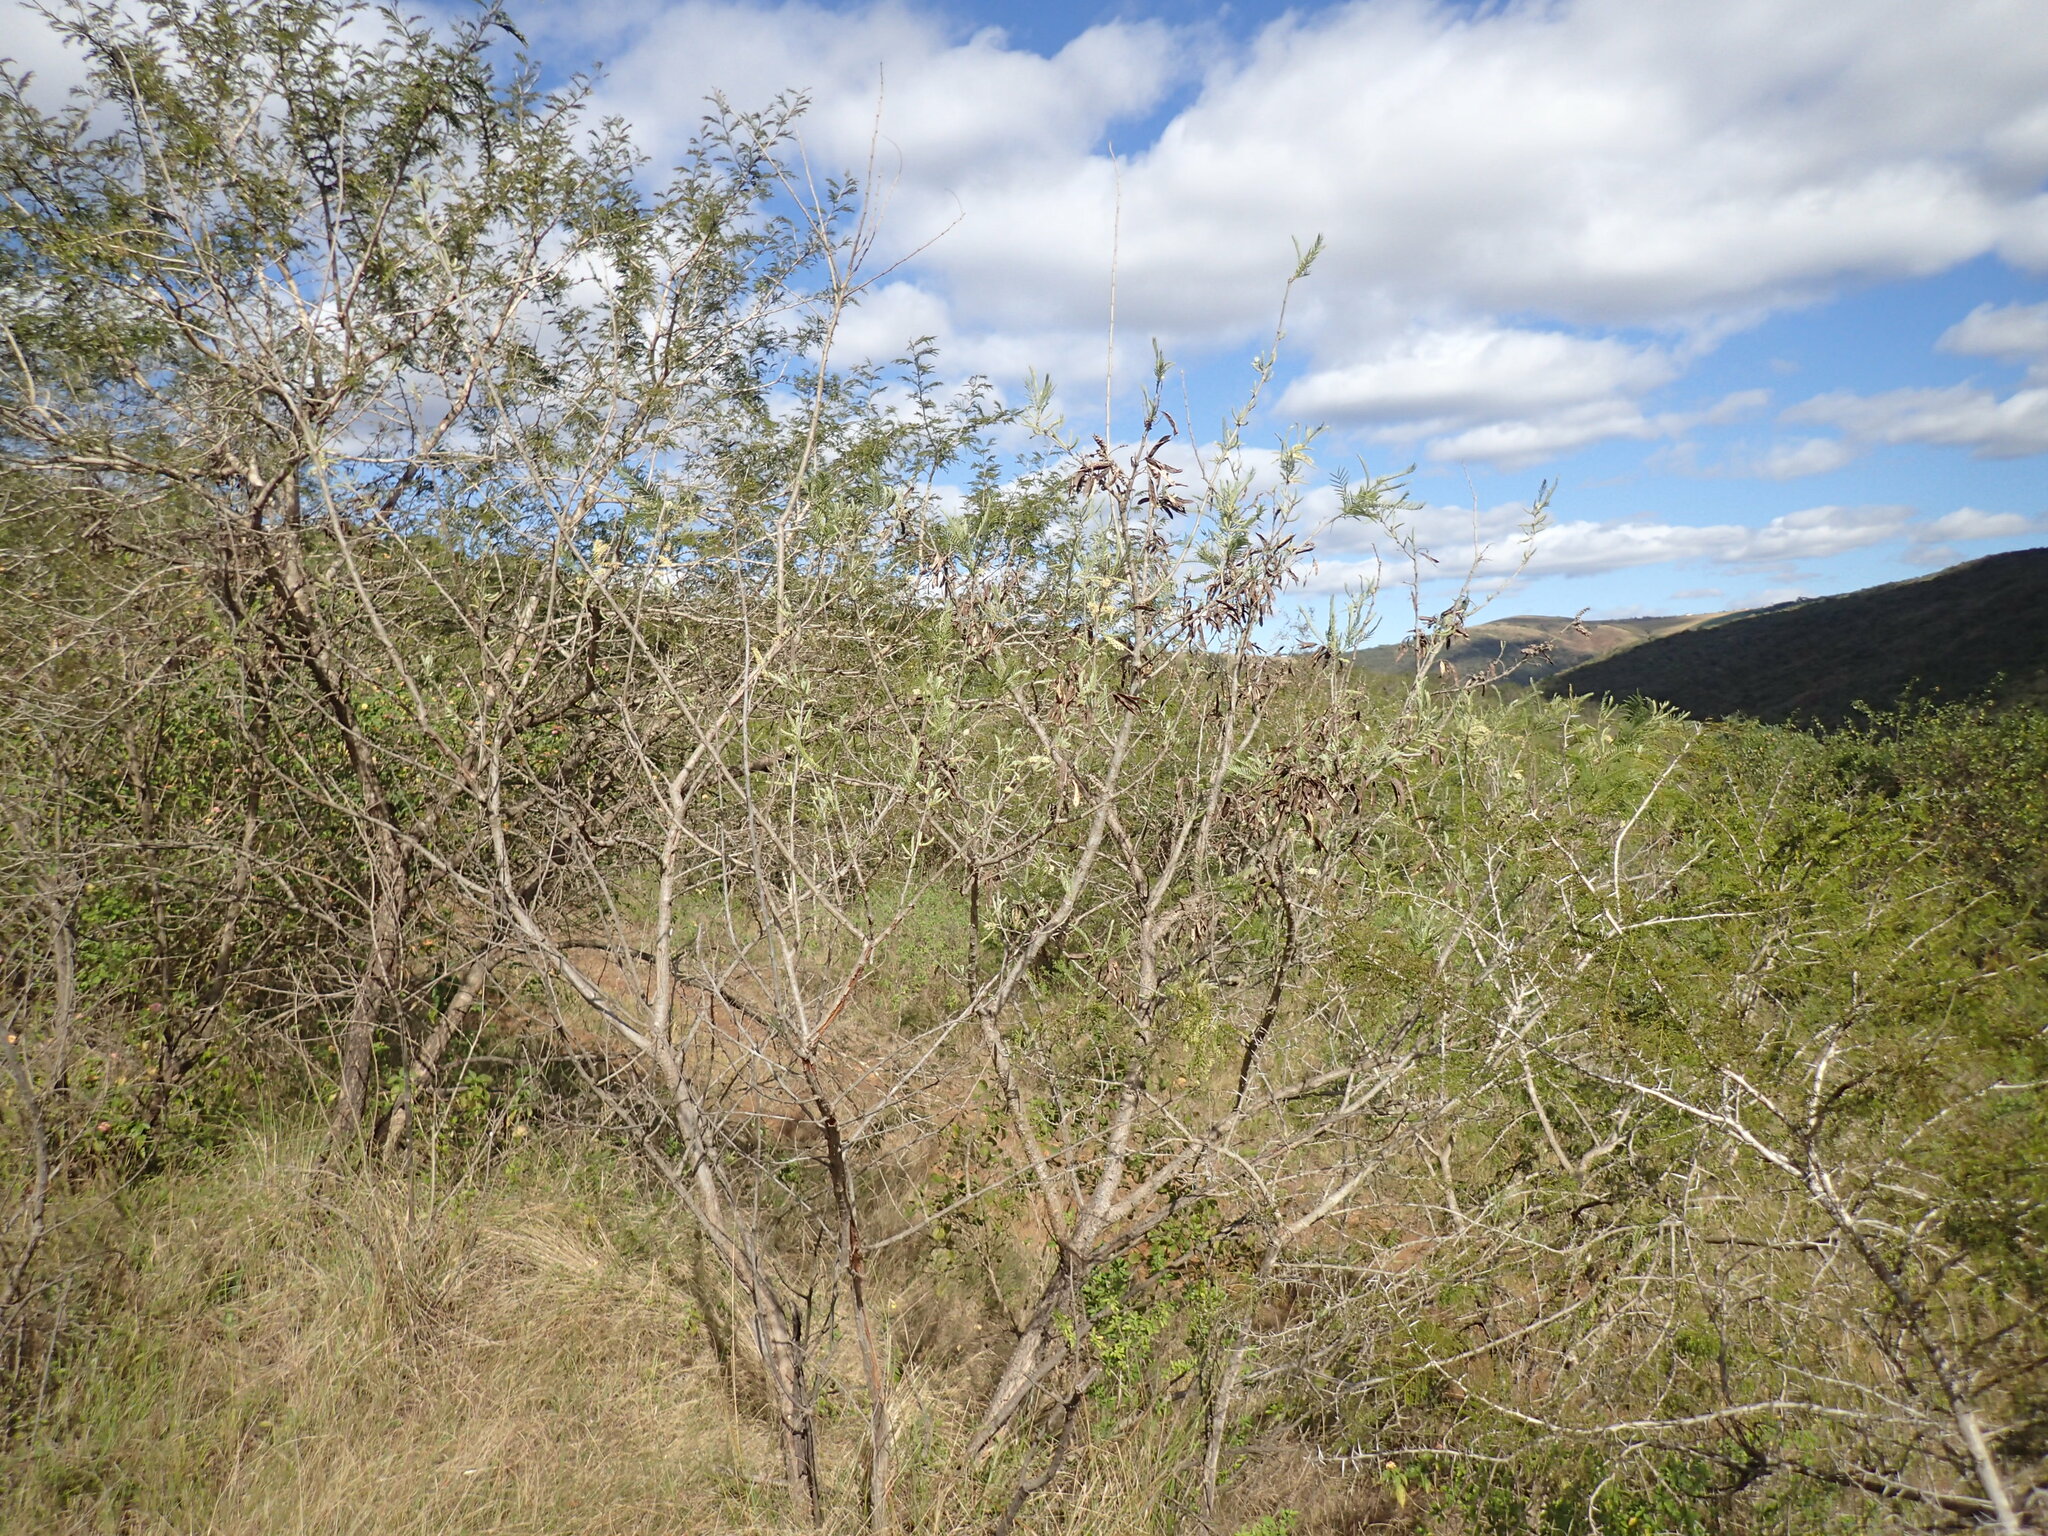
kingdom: Plantae
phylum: Tracheophyta
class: Magnoliopsida
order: Fabales
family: Fabaceae
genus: Senegalia
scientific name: Senegalia caffra
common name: Cat thorn
